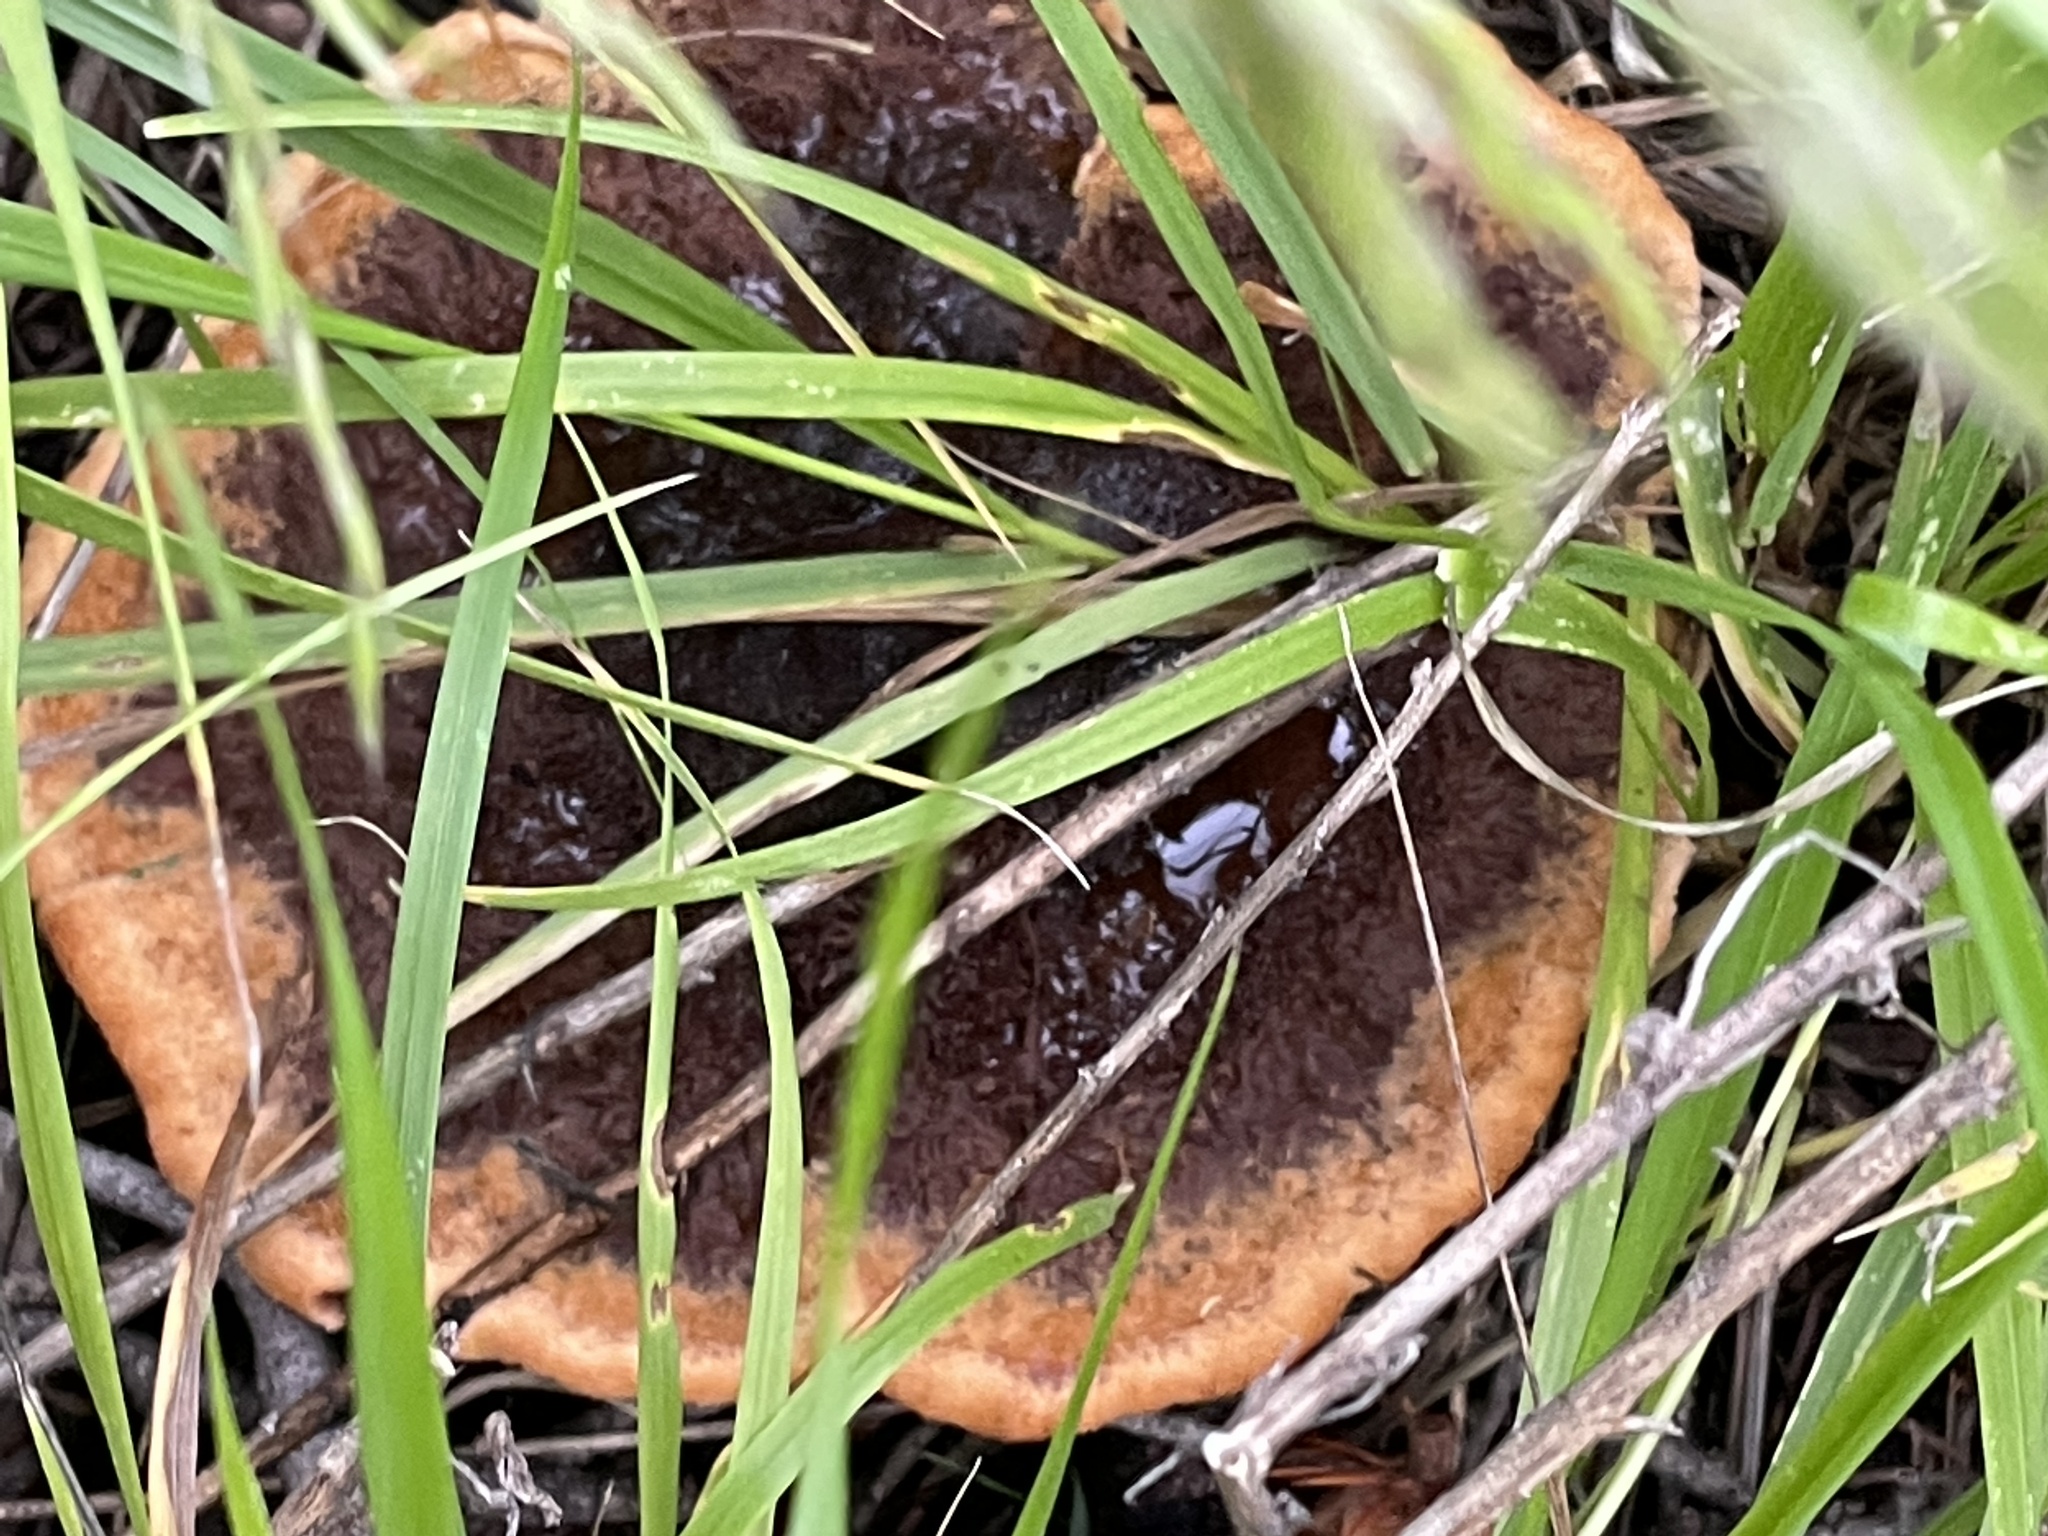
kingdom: Fungi
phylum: Basidiomycota
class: Agaricomycetes
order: Polyporales
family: Laetiporaceae
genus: Phaeolus
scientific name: Phaeolus schweinitzii
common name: Dyer's mazegill
